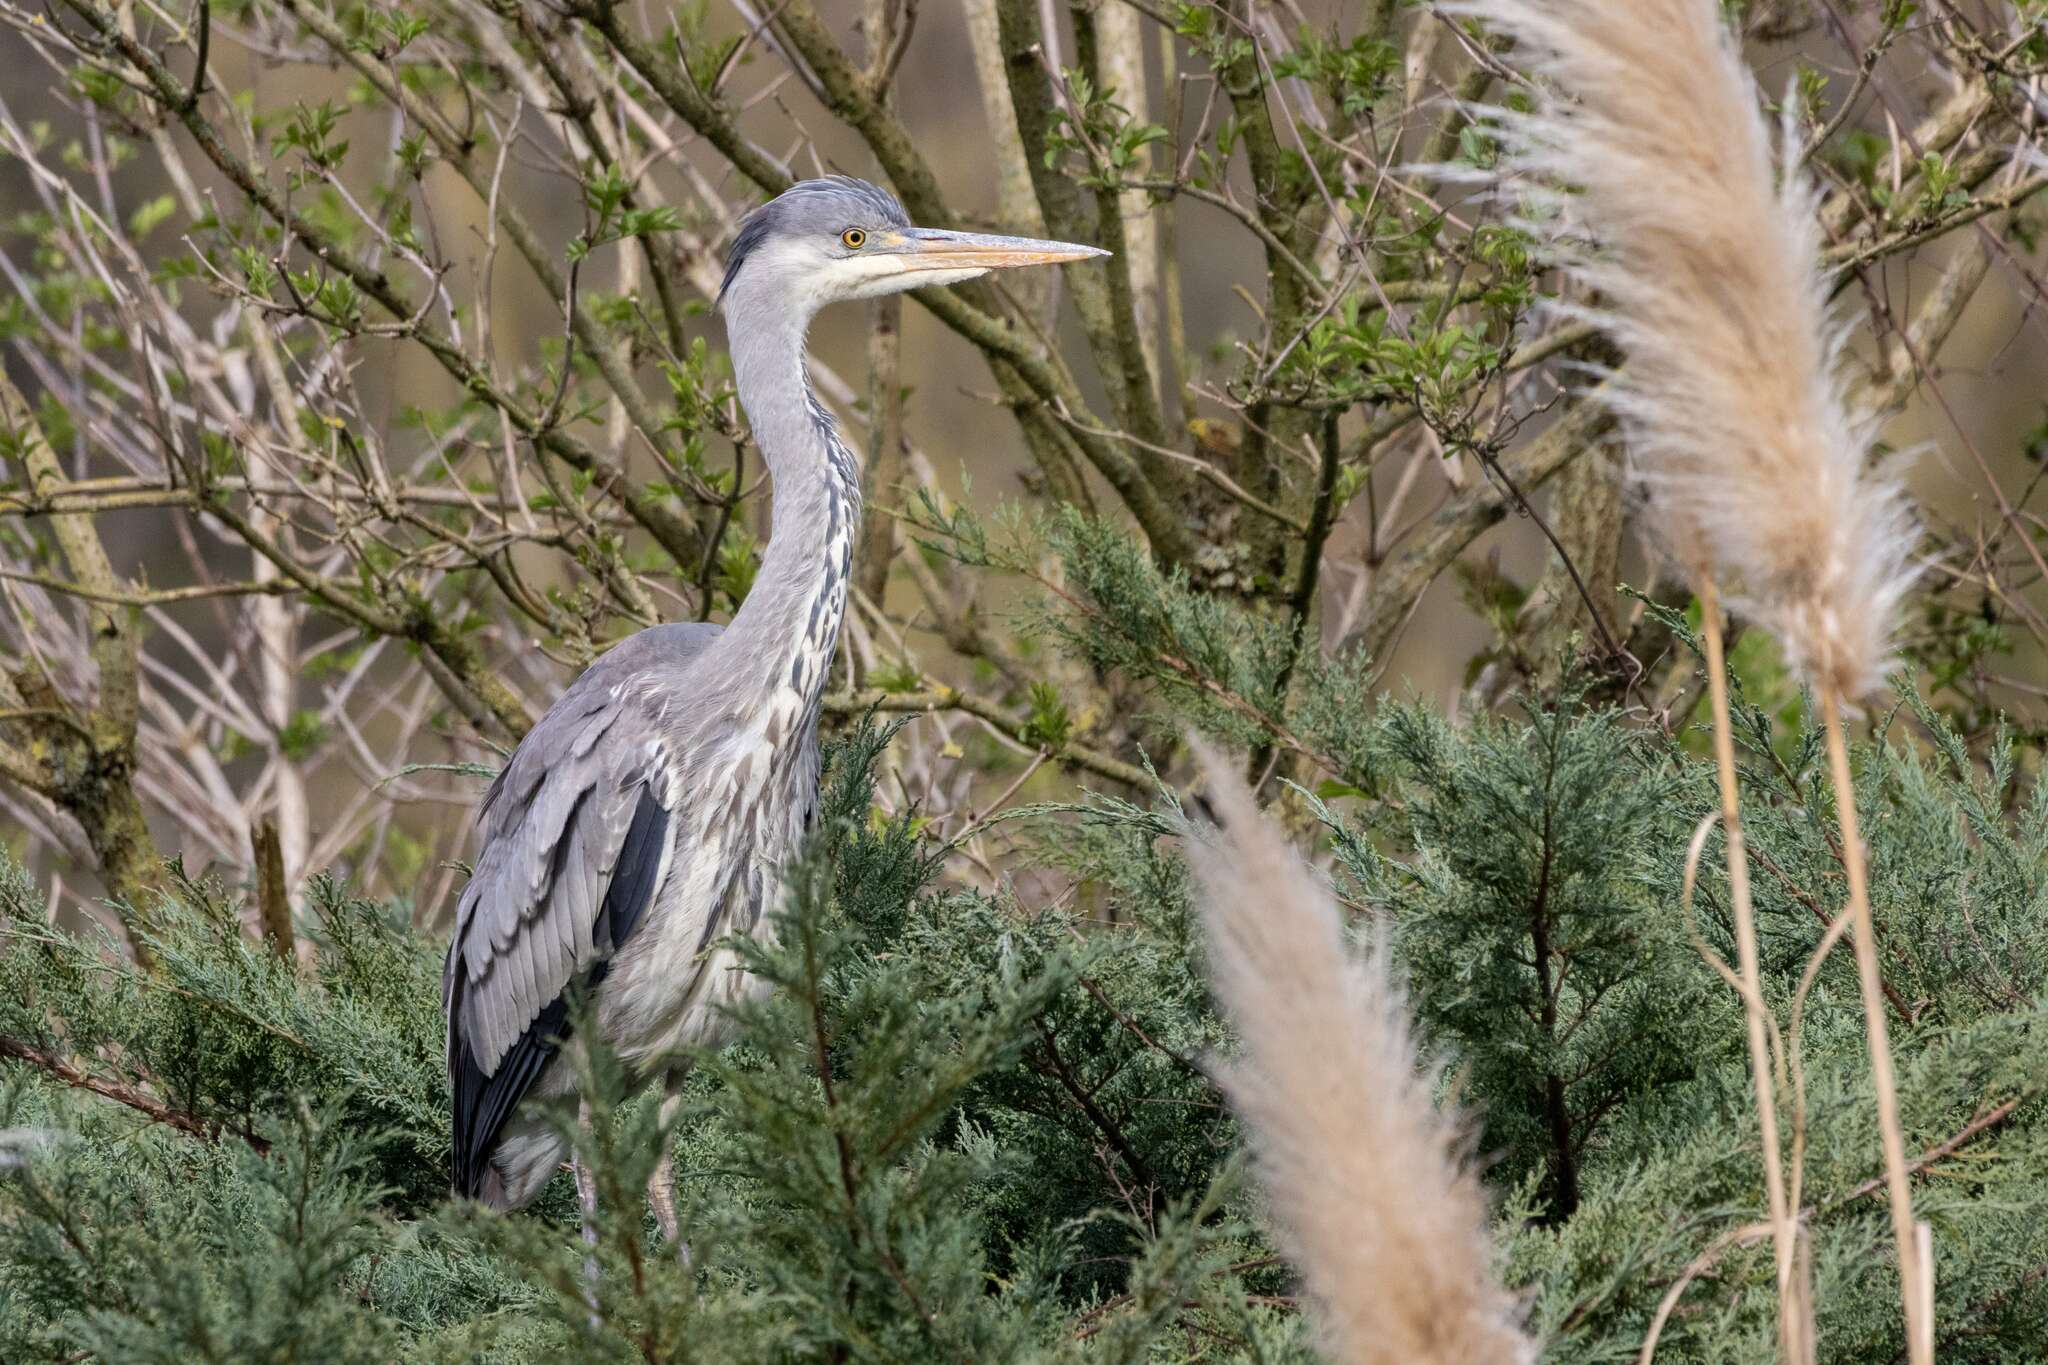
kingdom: Animalia
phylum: Chordata
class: Aves
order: Pelecaniformes
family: Ardeidae
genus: Ardea
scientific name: Ardea cinerea
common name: Grey heron
